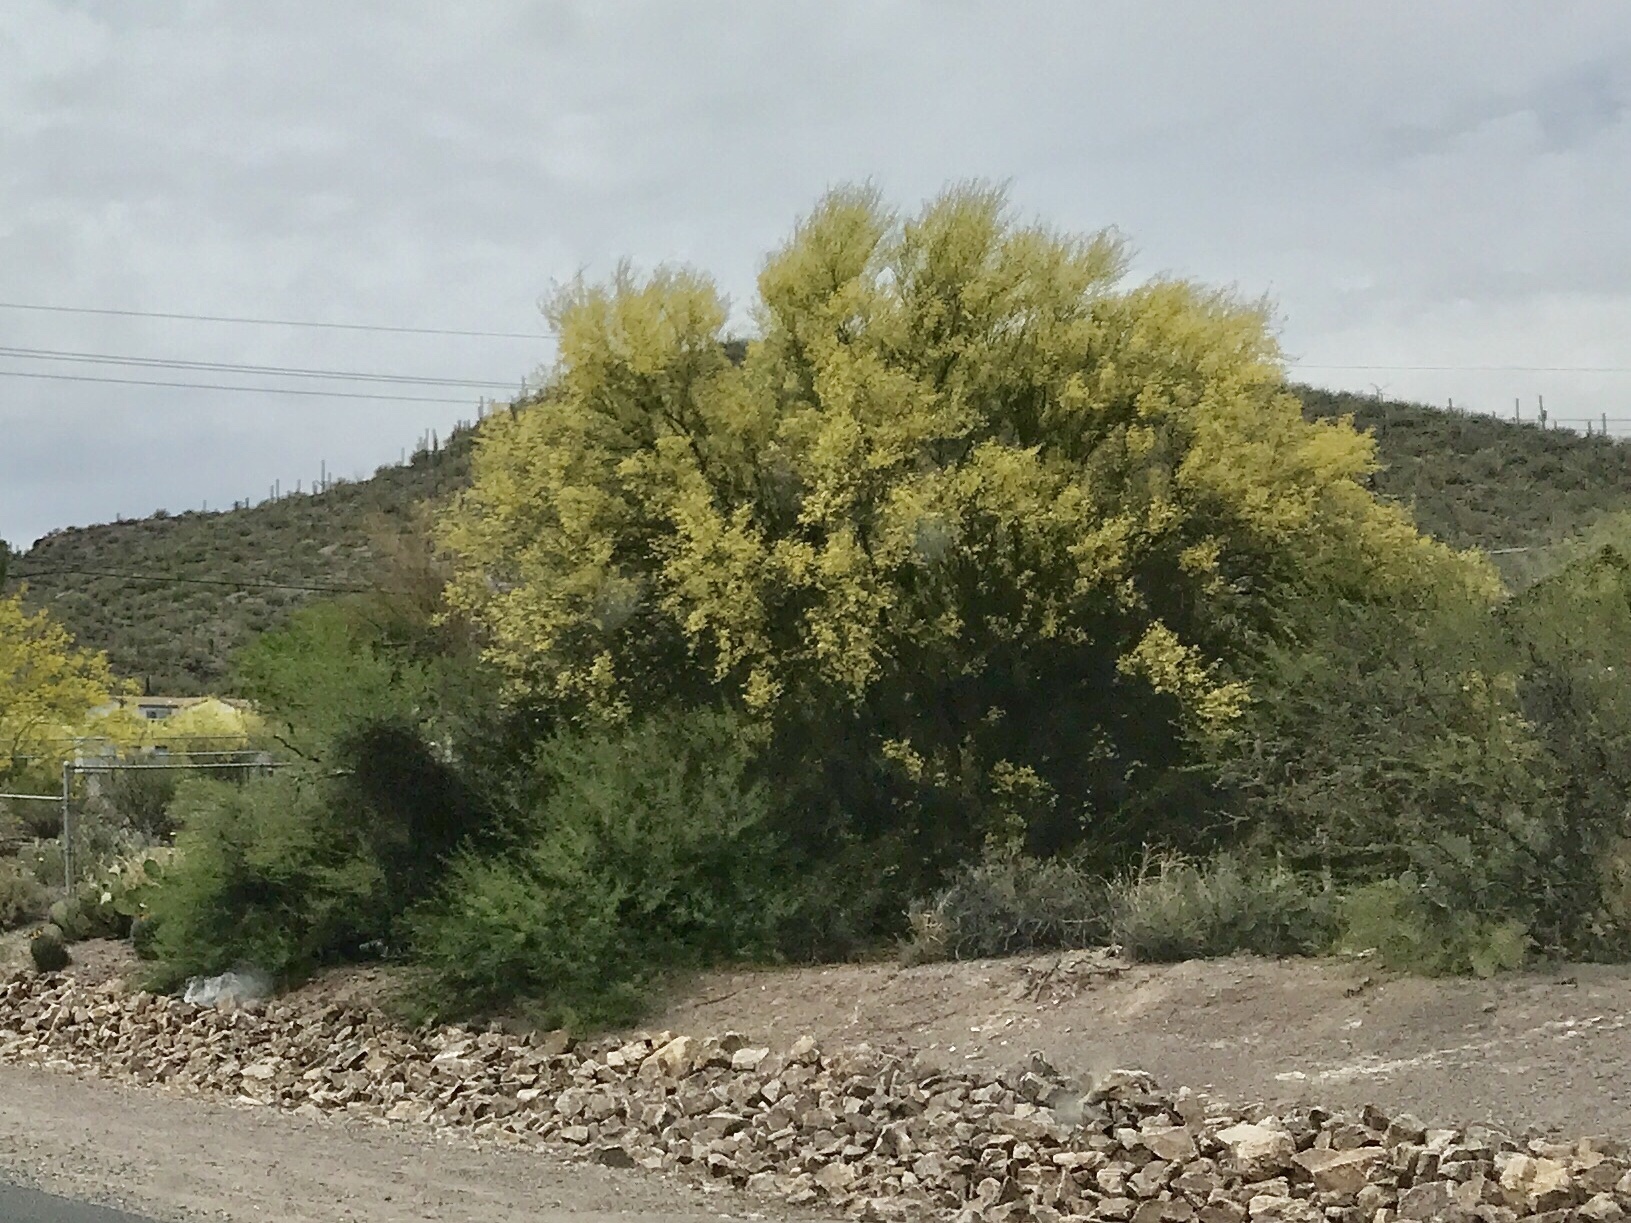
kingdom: Plantae
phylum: Tracheophyta
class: Magnoliopsida
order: Fabales
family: Fabaceae
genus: Parkinsonia
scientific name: Parkinsonia florida
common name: Blue paloverde
